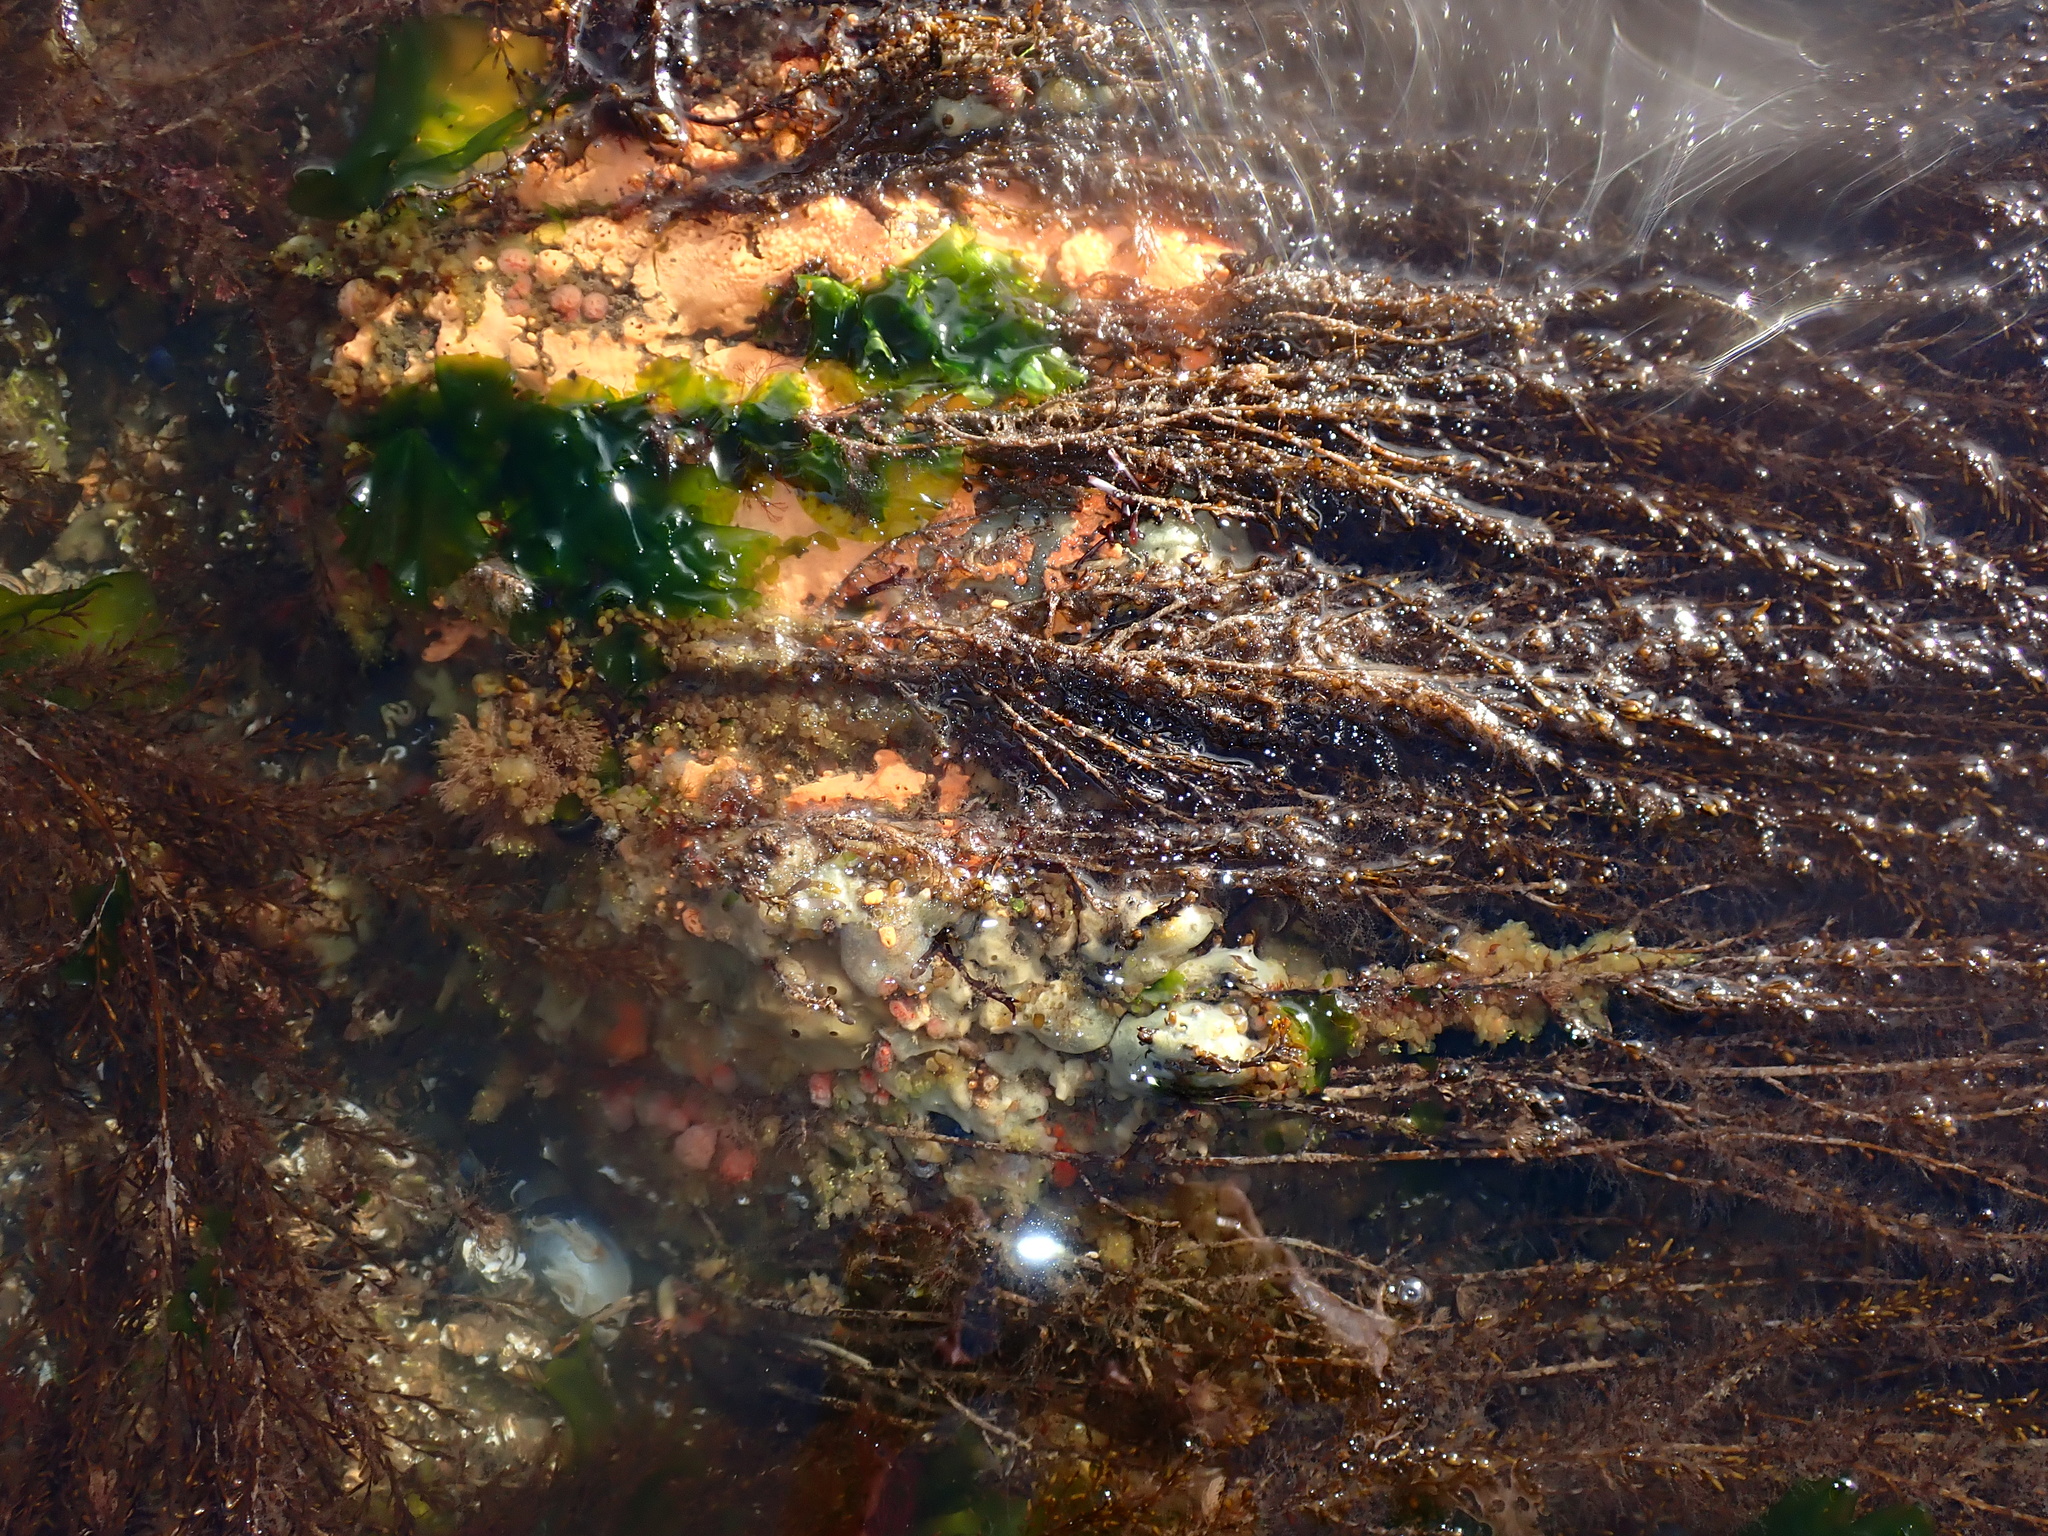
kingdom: Chromista
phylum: Ochrophyta
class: Phaeophyceae
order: Fucales
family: Sargassaceae
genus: Sargassum
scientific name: Sargassum muticum
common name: Japweed
